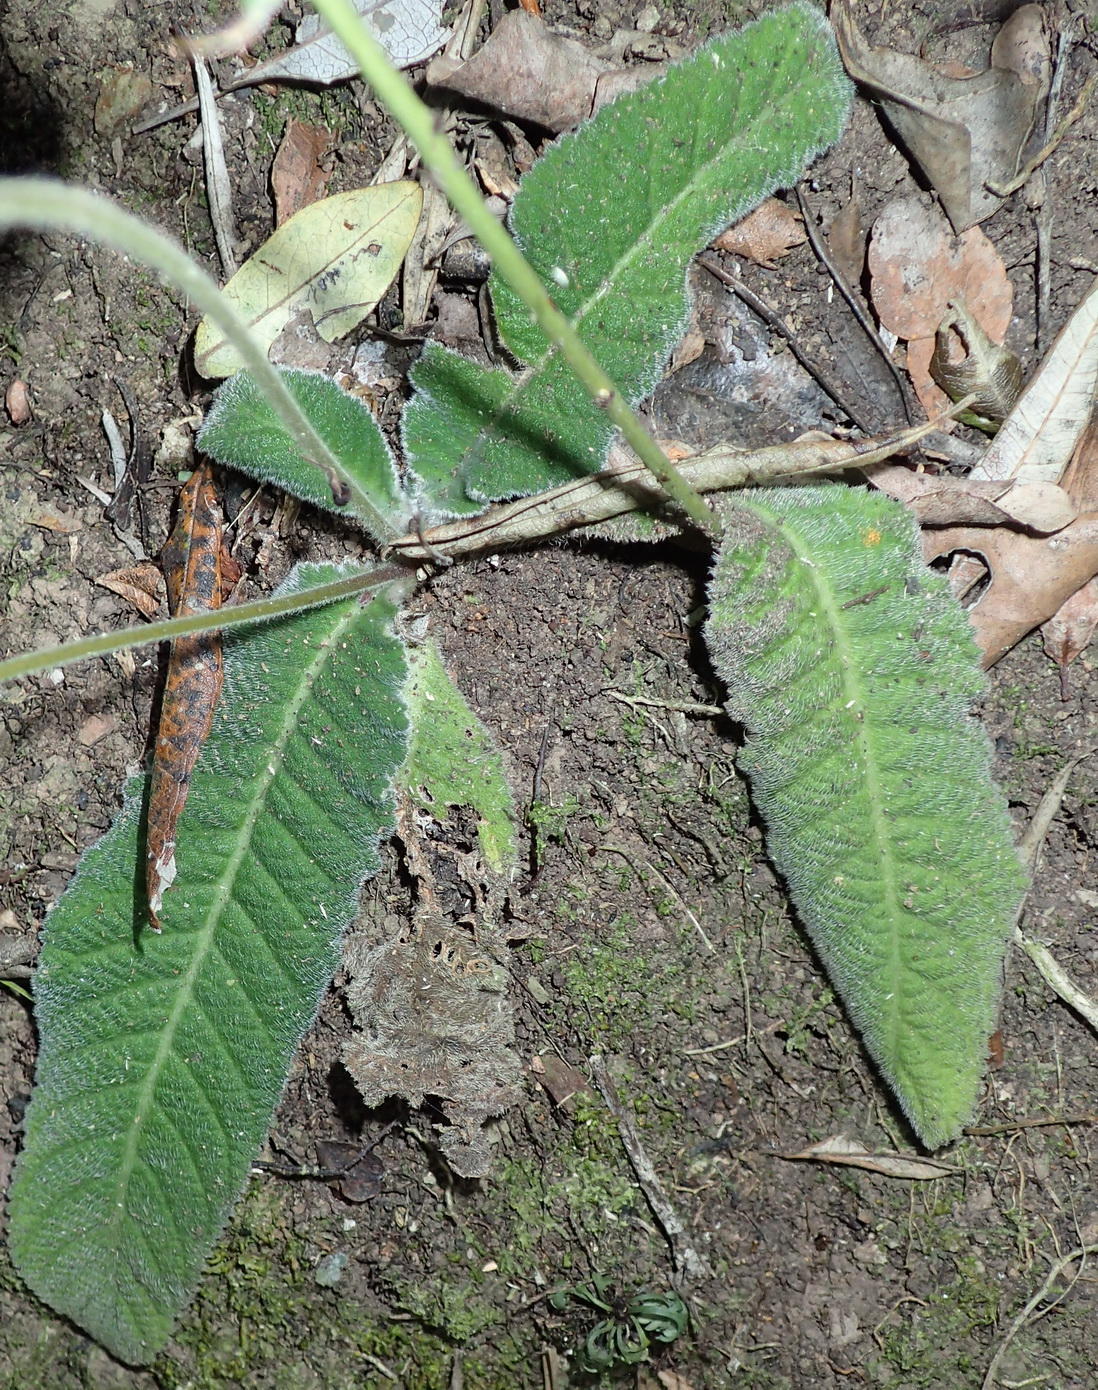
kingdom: Plantae
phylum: Tracheophyta
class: Magnoliopsida
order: Lamiales
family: Gesneriaceae
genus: Streptocarpus
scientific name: Streptocarpus rexii
